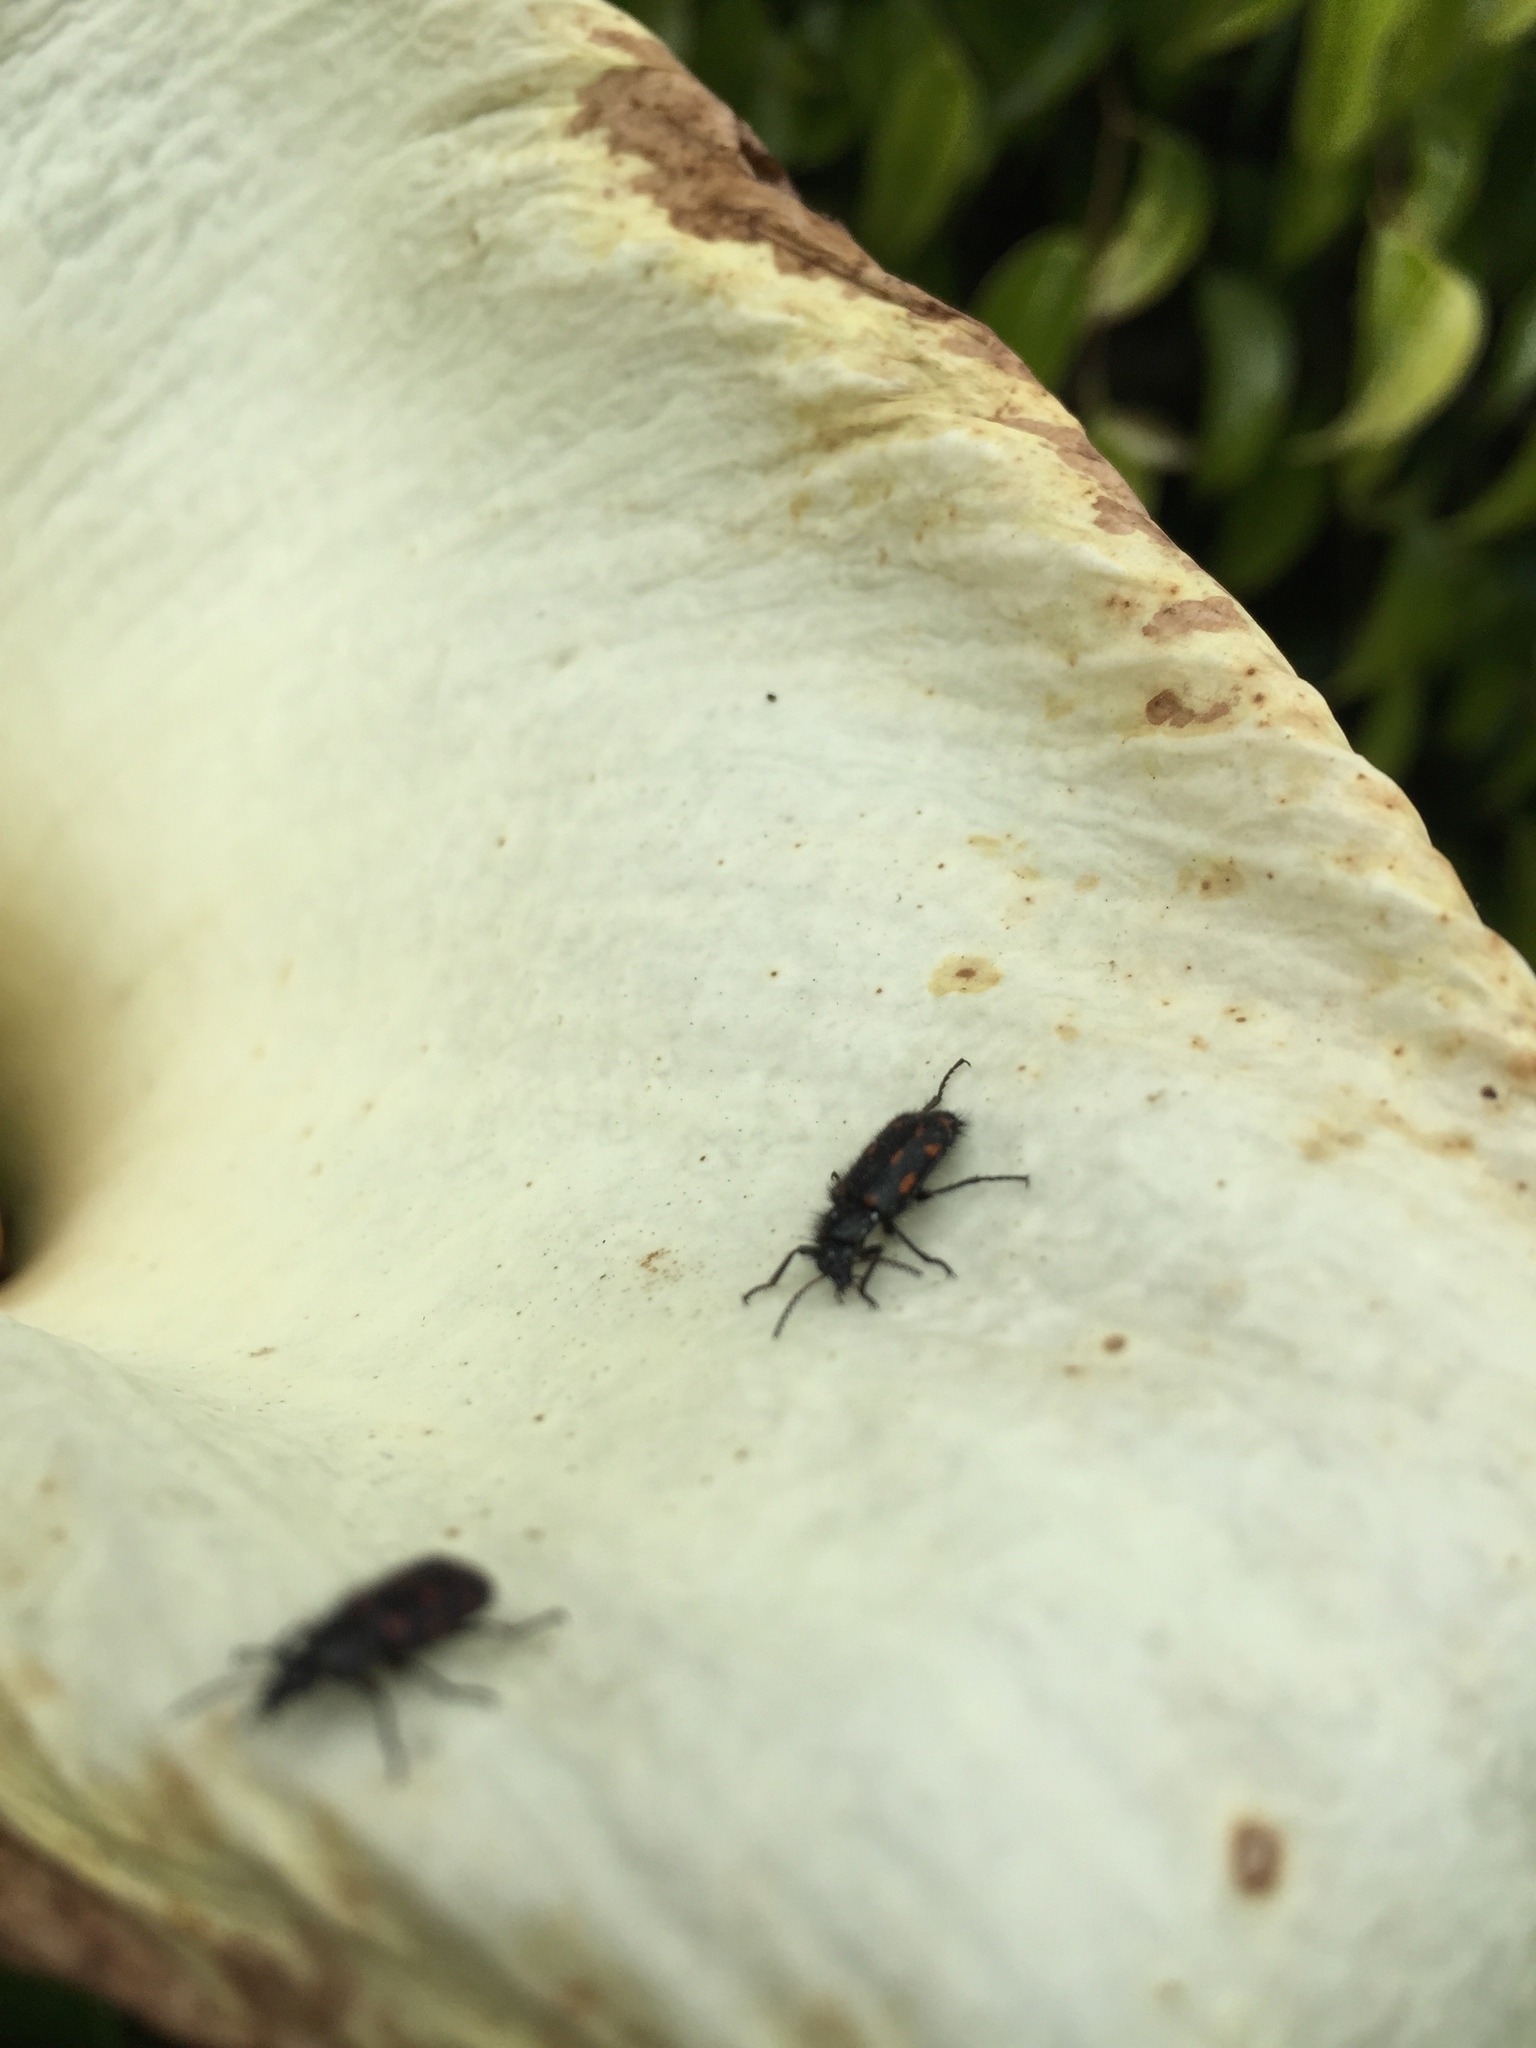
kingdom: Animalia
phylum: Arthropoda
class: Insecta
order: Coleoptera
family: Melyridae
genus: Astylus
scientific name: Astylus
